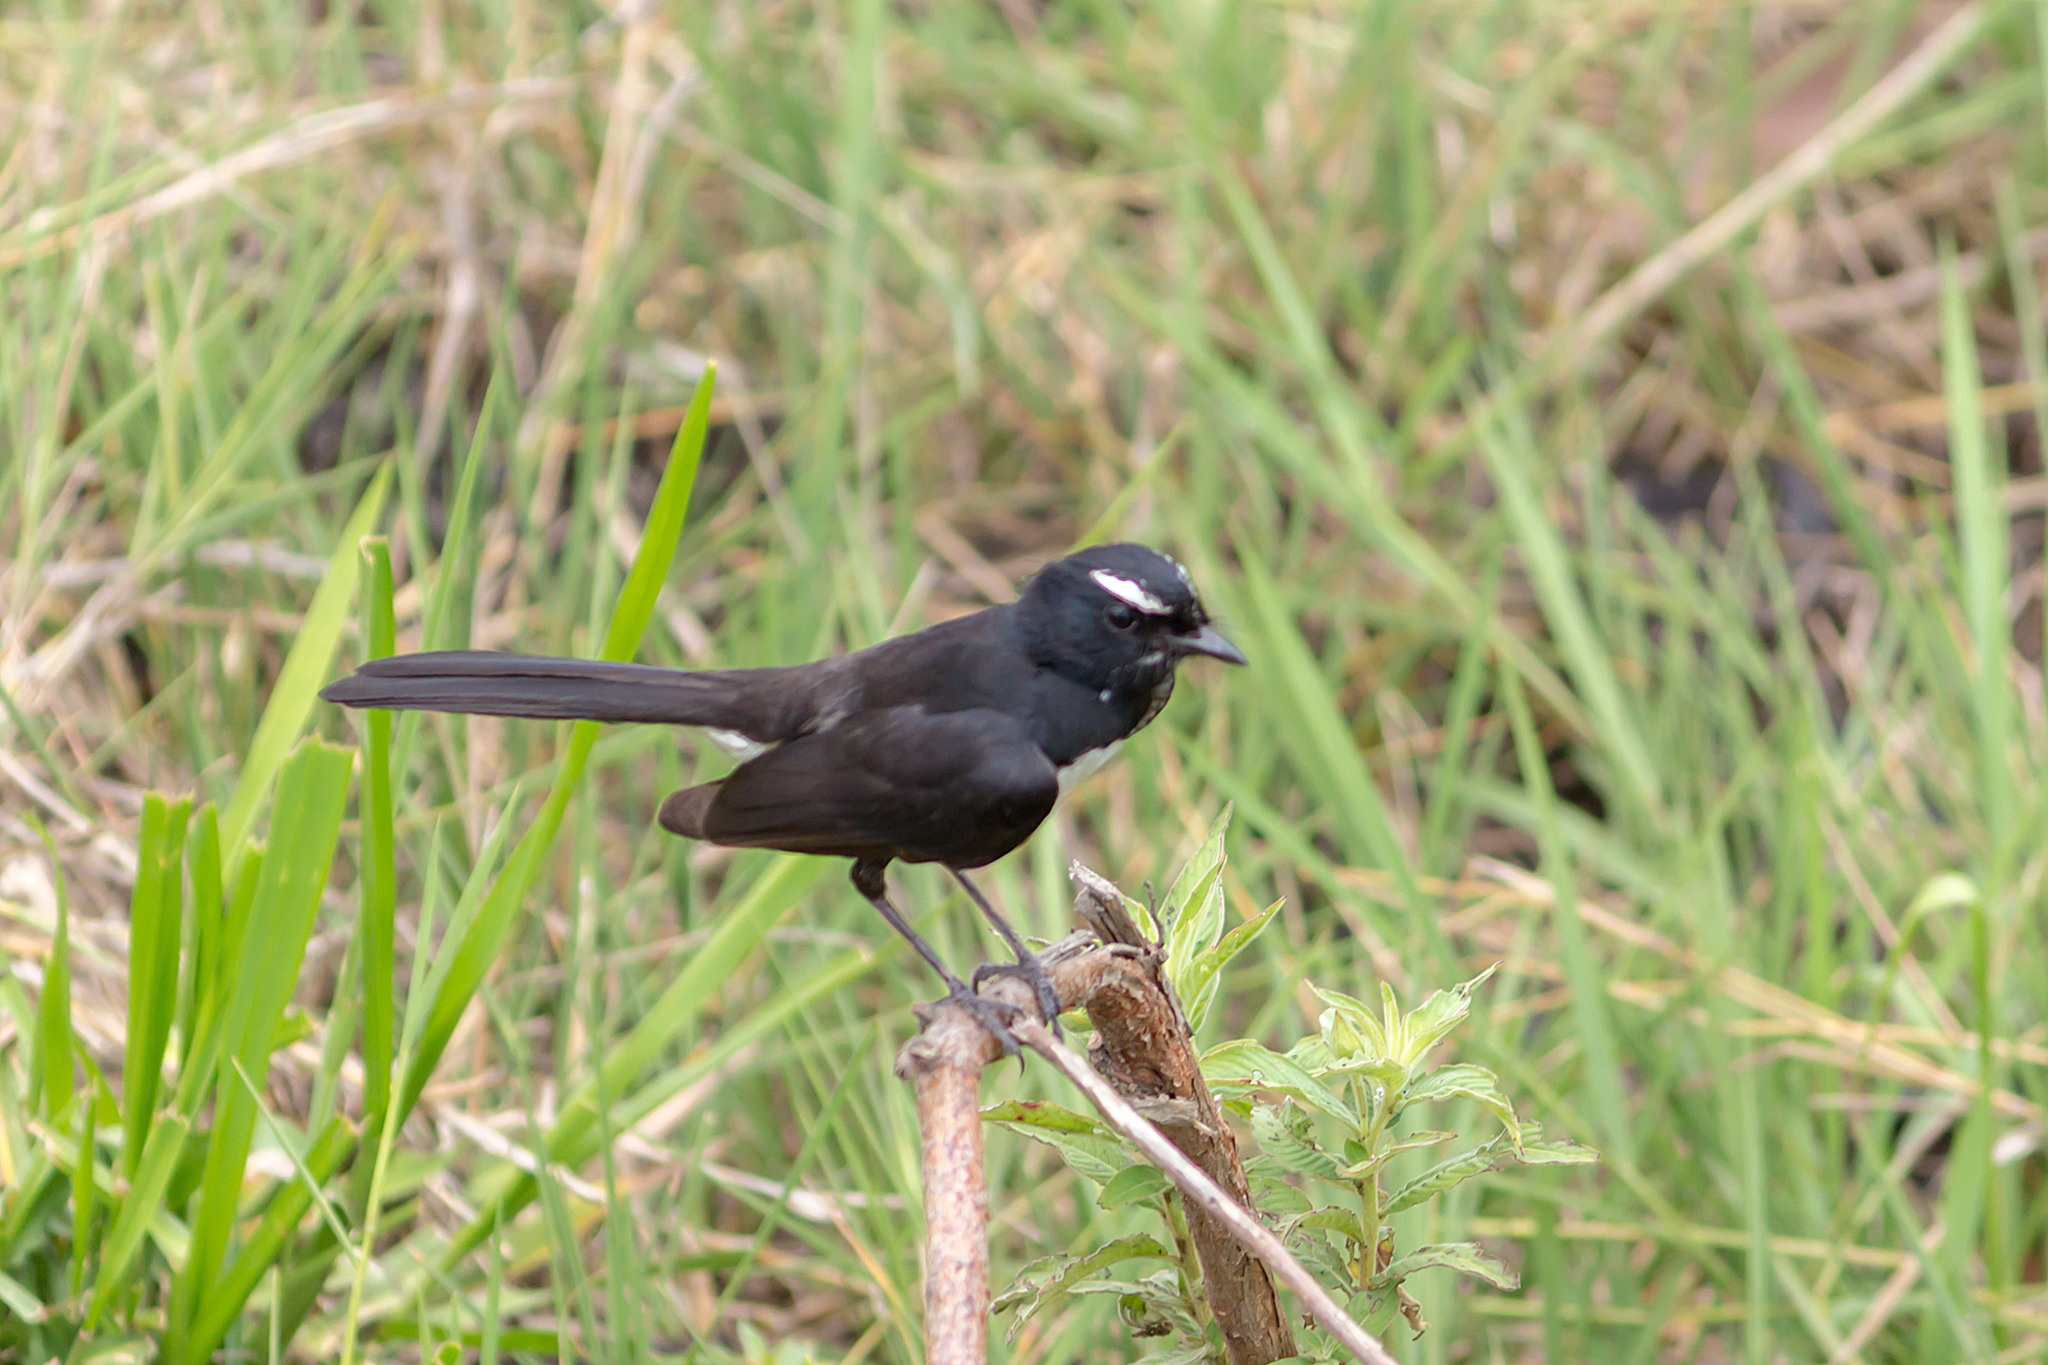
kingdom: Animalia
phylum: Chordata
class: Aves
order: Passeriformes
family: Rhipiduridae
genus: Rhipidura
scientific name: Rhipidura leucophrys
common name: Willie wagtail
